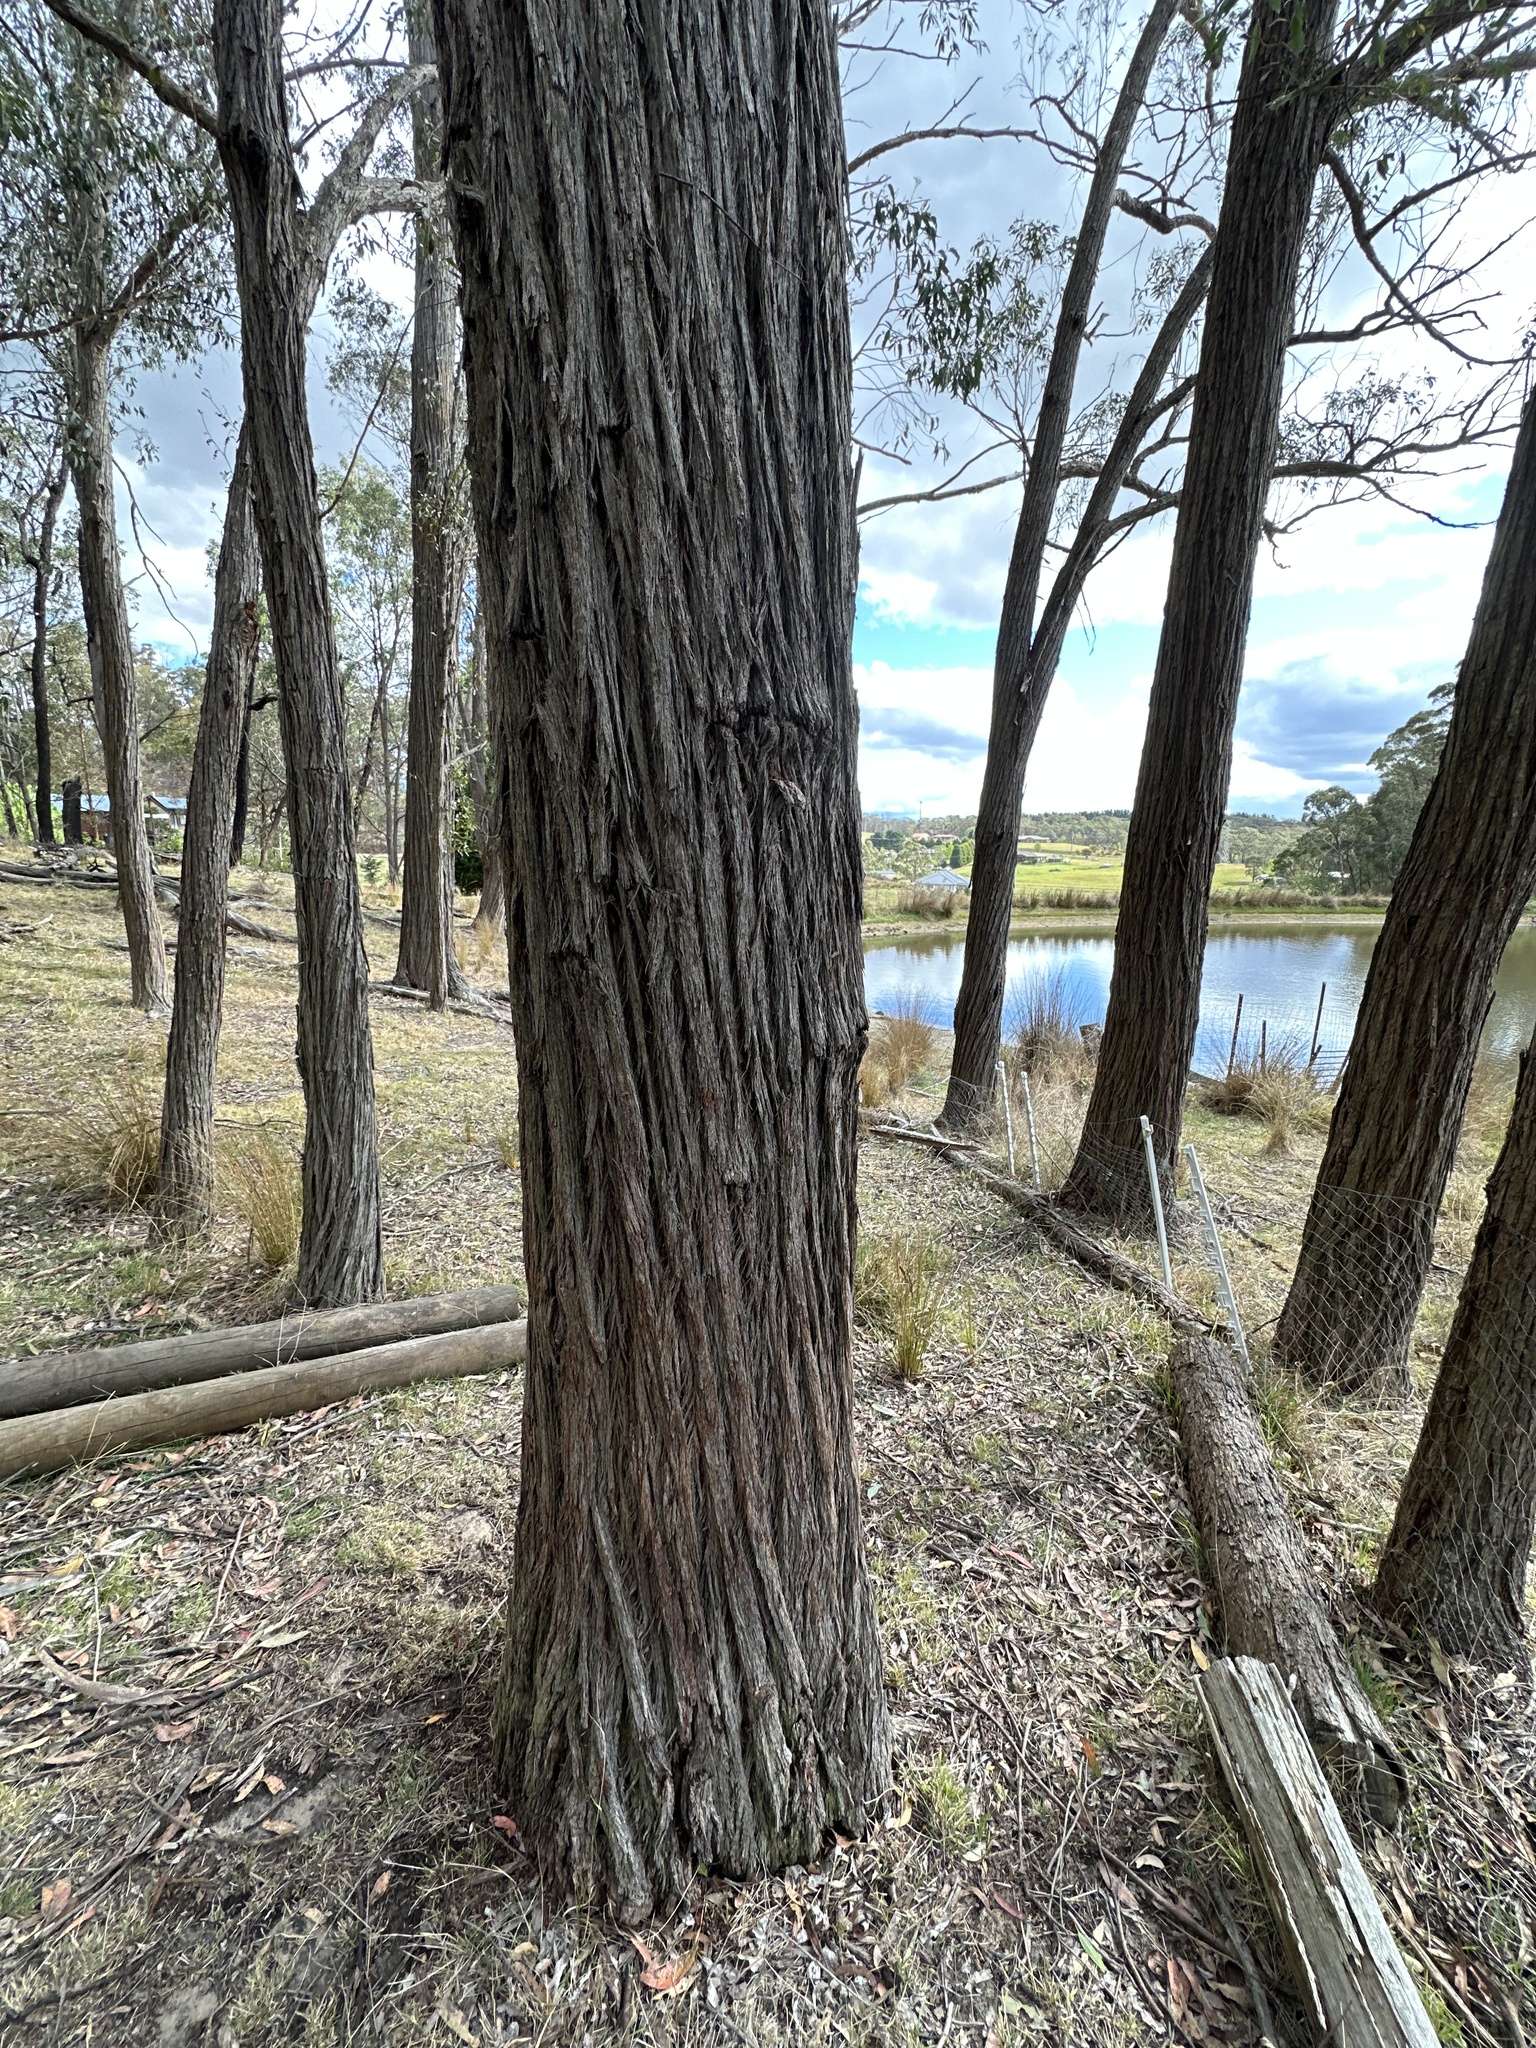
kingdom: Plantae
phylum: Tracheophyta
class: Magnoliopsida
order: Myrtales
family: Myrtaceae
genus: Eucalyptus
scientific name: Eucalyptus macrorhyncha
